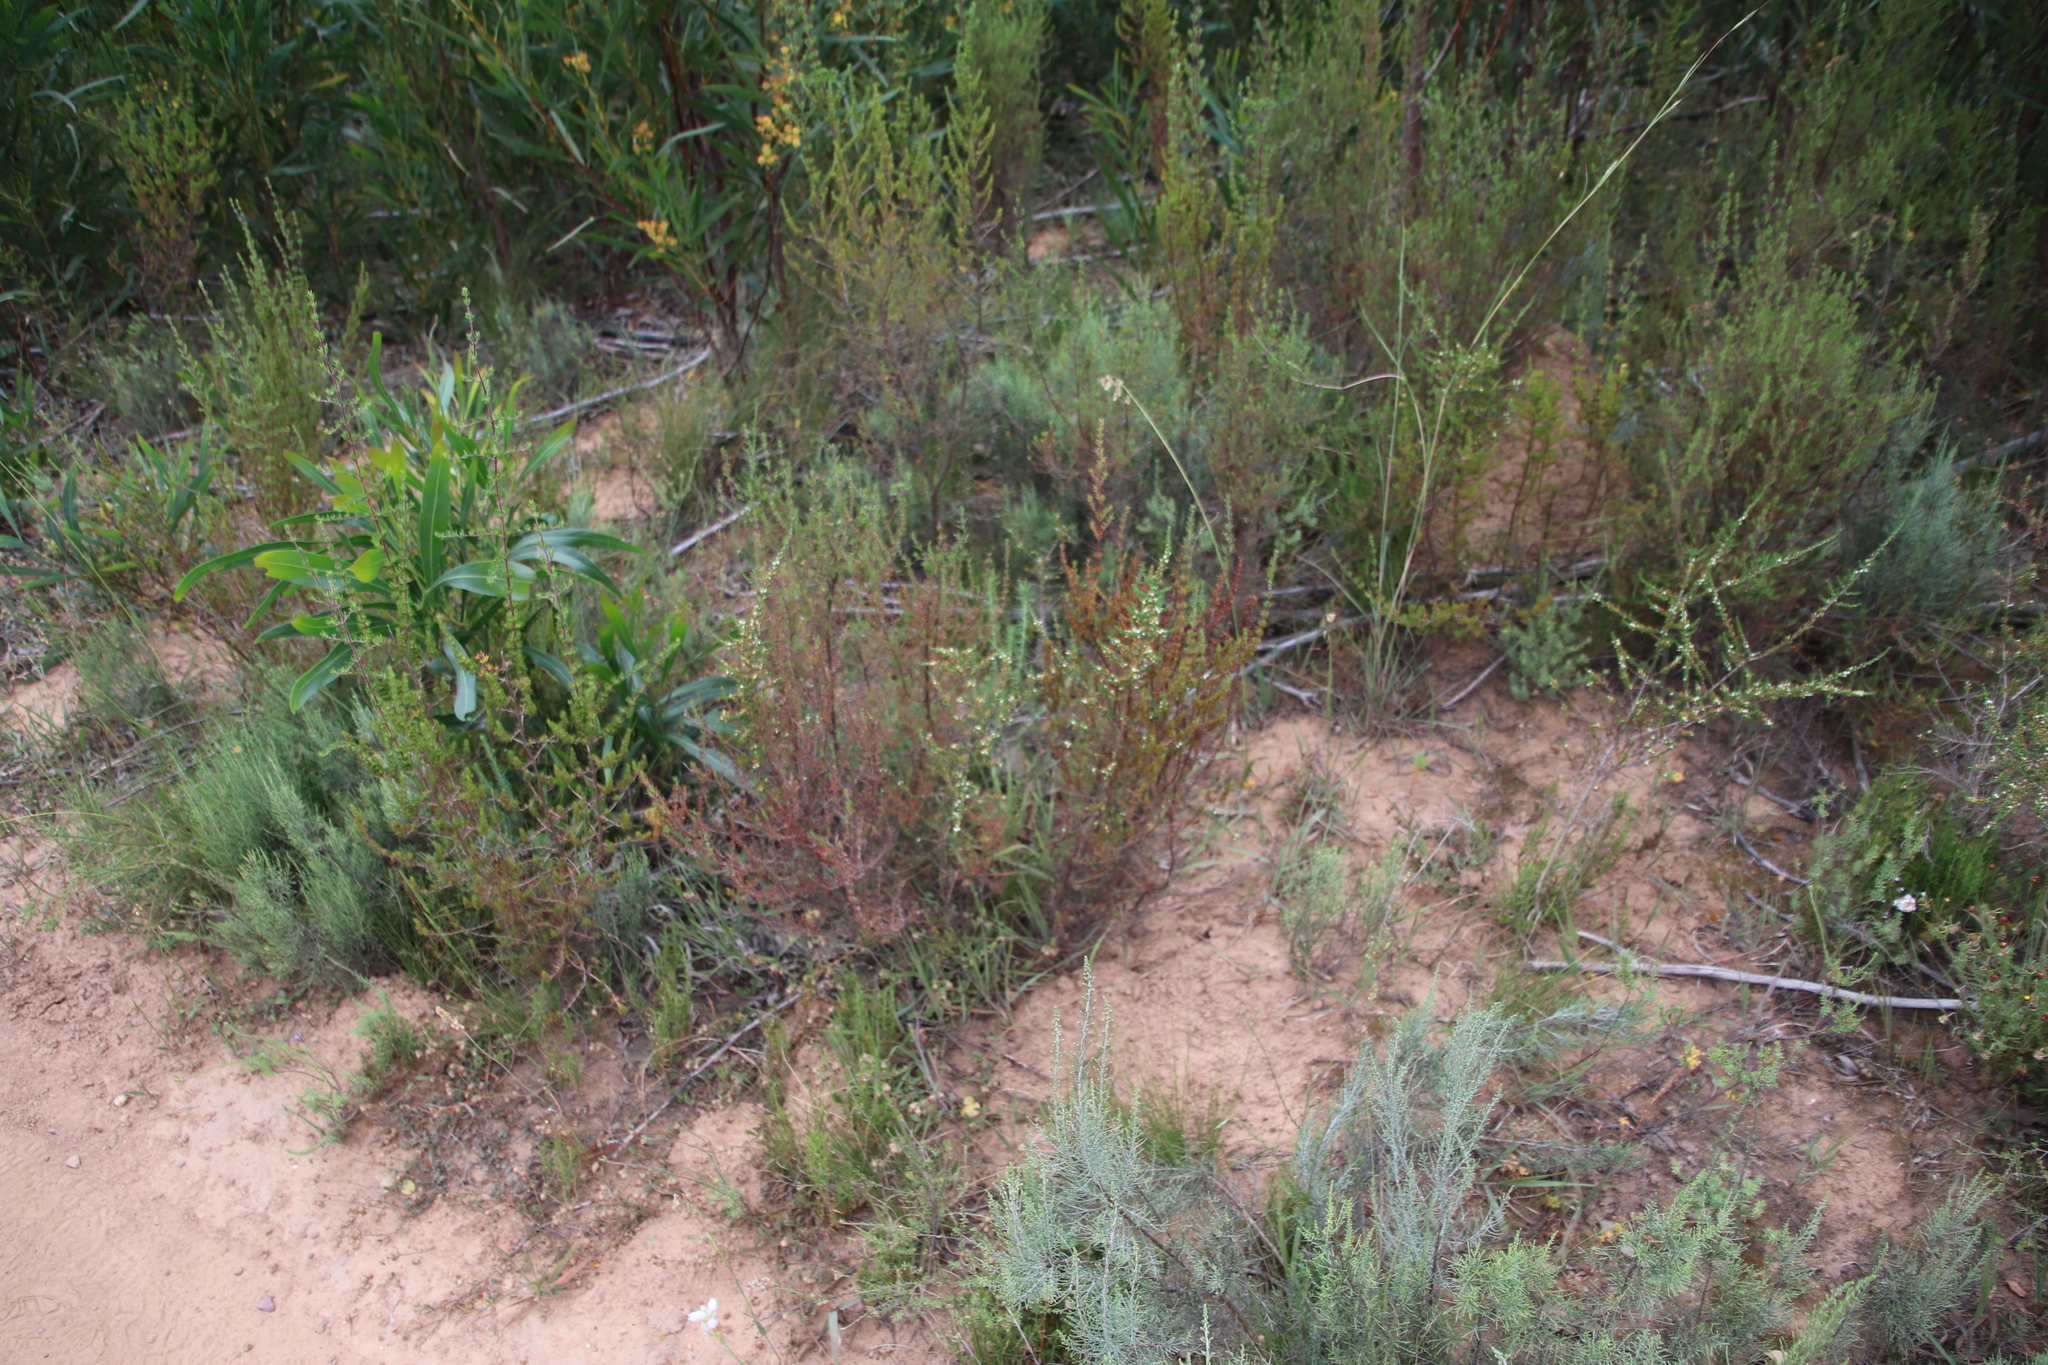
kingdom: Plantae
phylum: Tracheophyta
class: Magnoliopsida
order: Fabales
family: Fabaceae
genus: Aspalathus
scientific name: Aspalathus hispida
